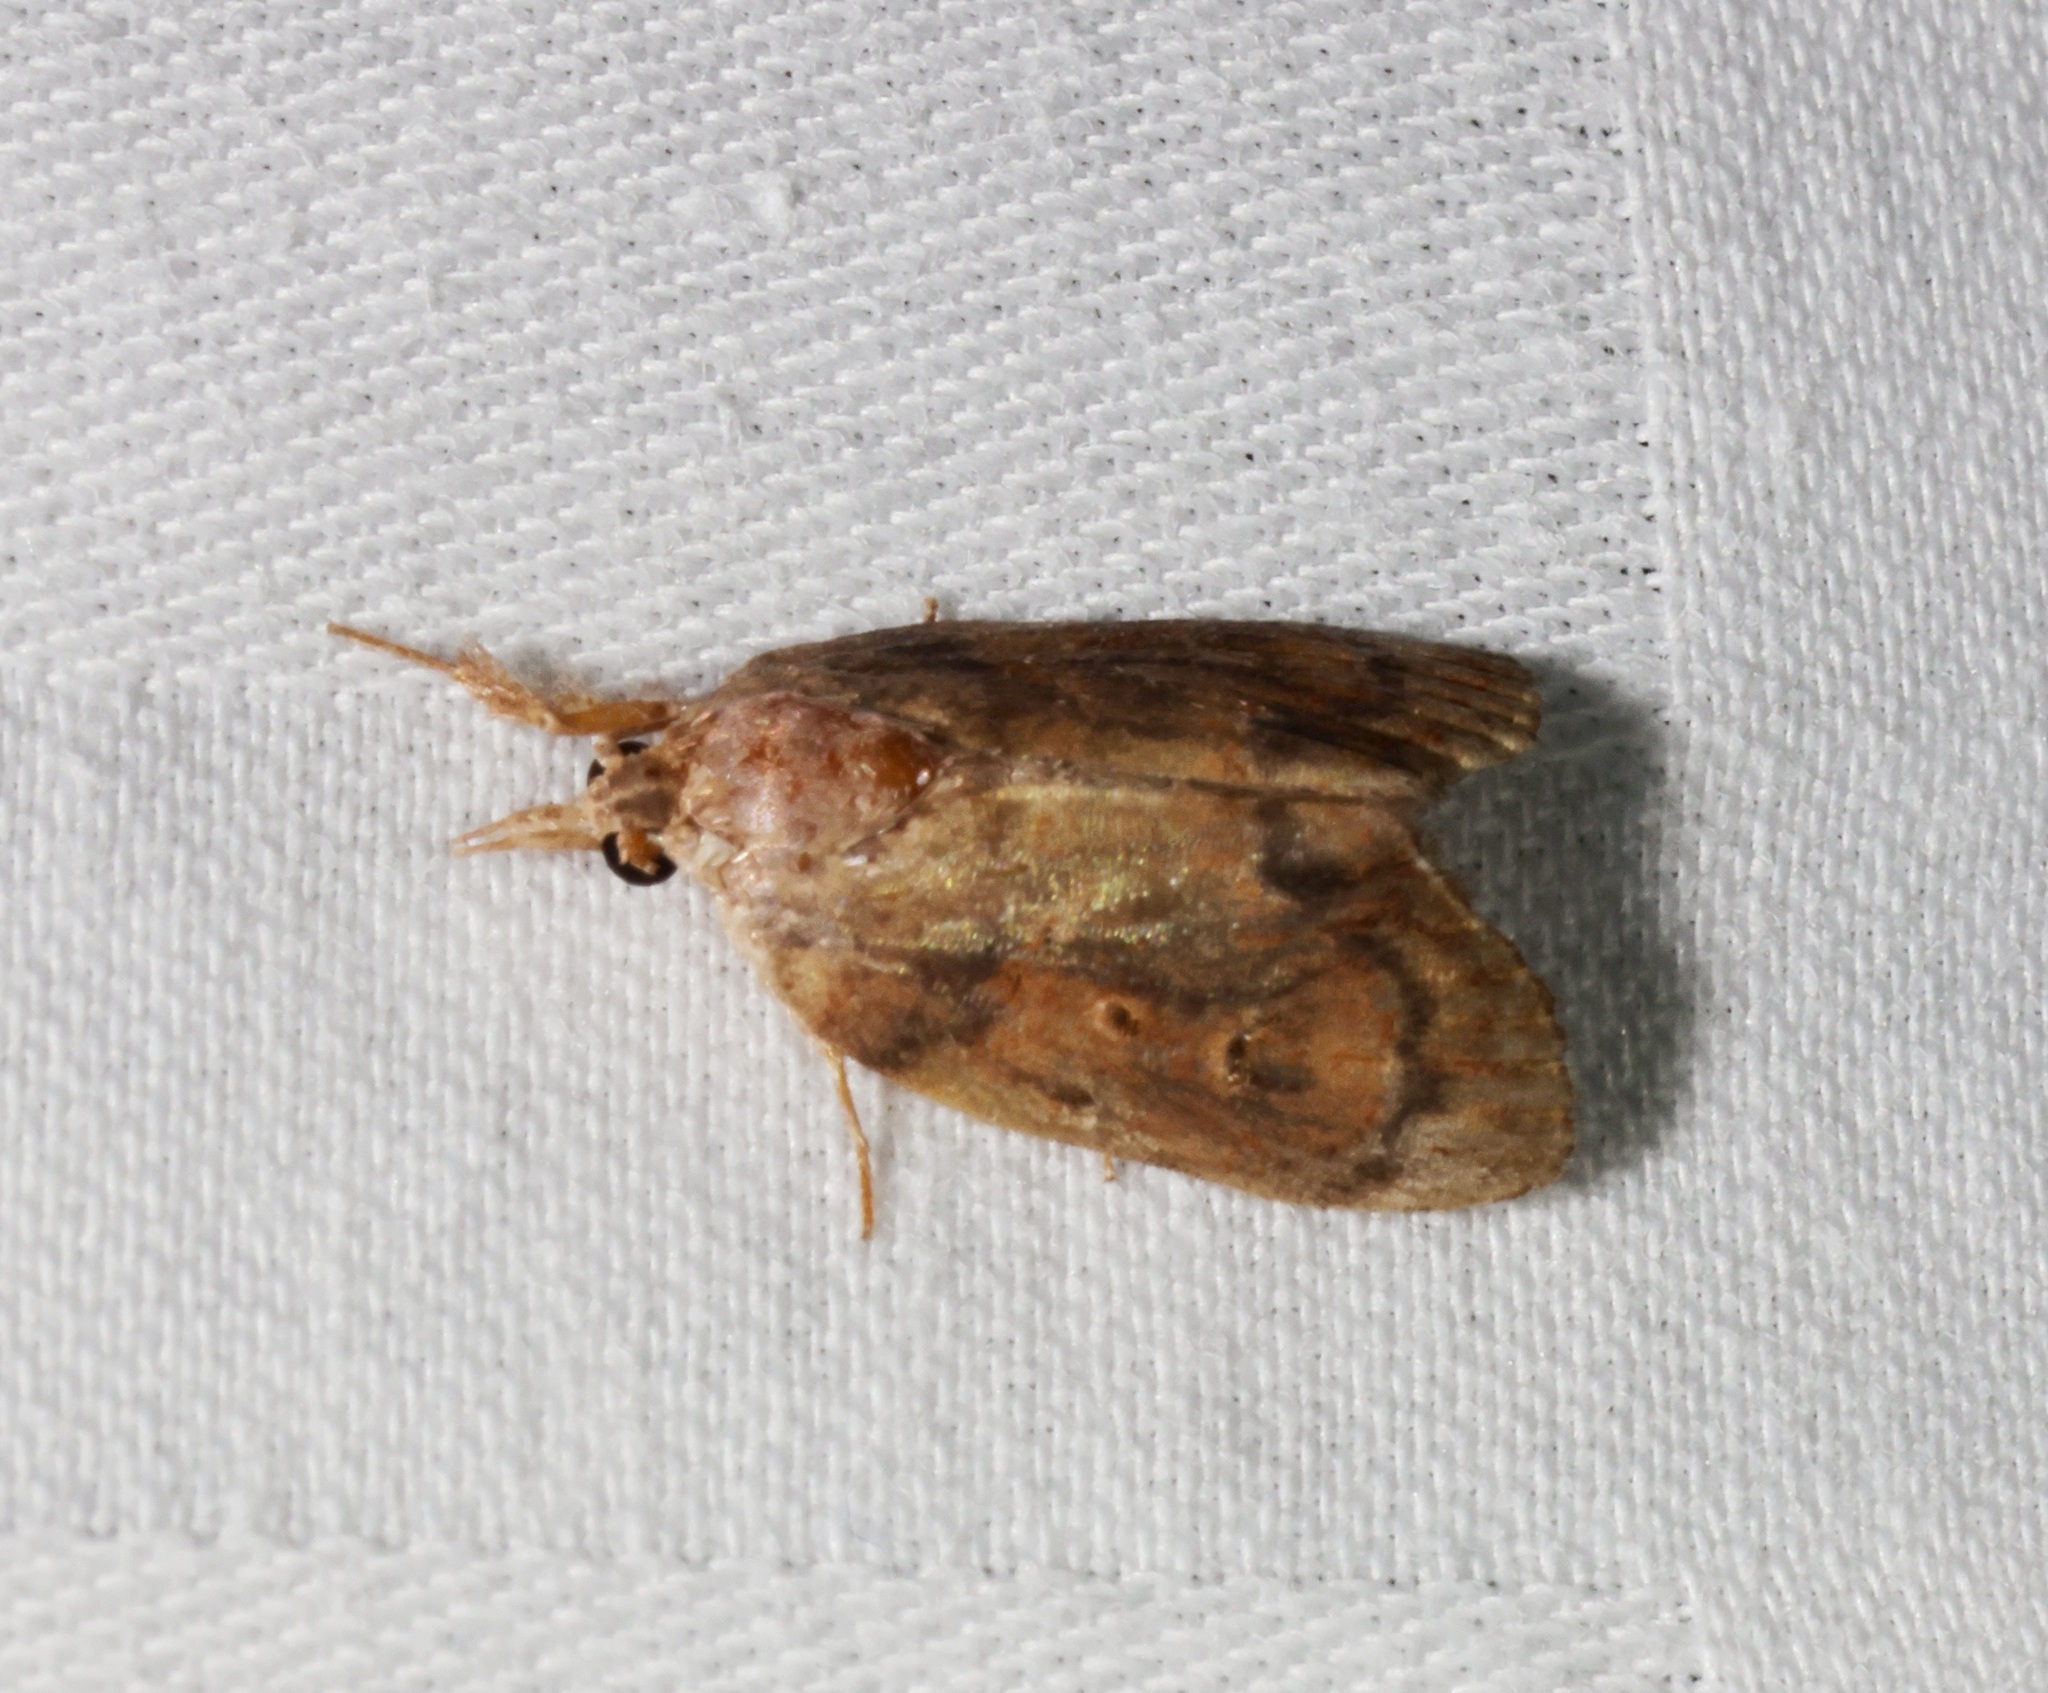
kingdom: Animalia
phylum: Arthropoda
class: Insecta
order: Lepidoptera
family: Nolidae
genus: Selepa
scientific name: Selepa discigera
